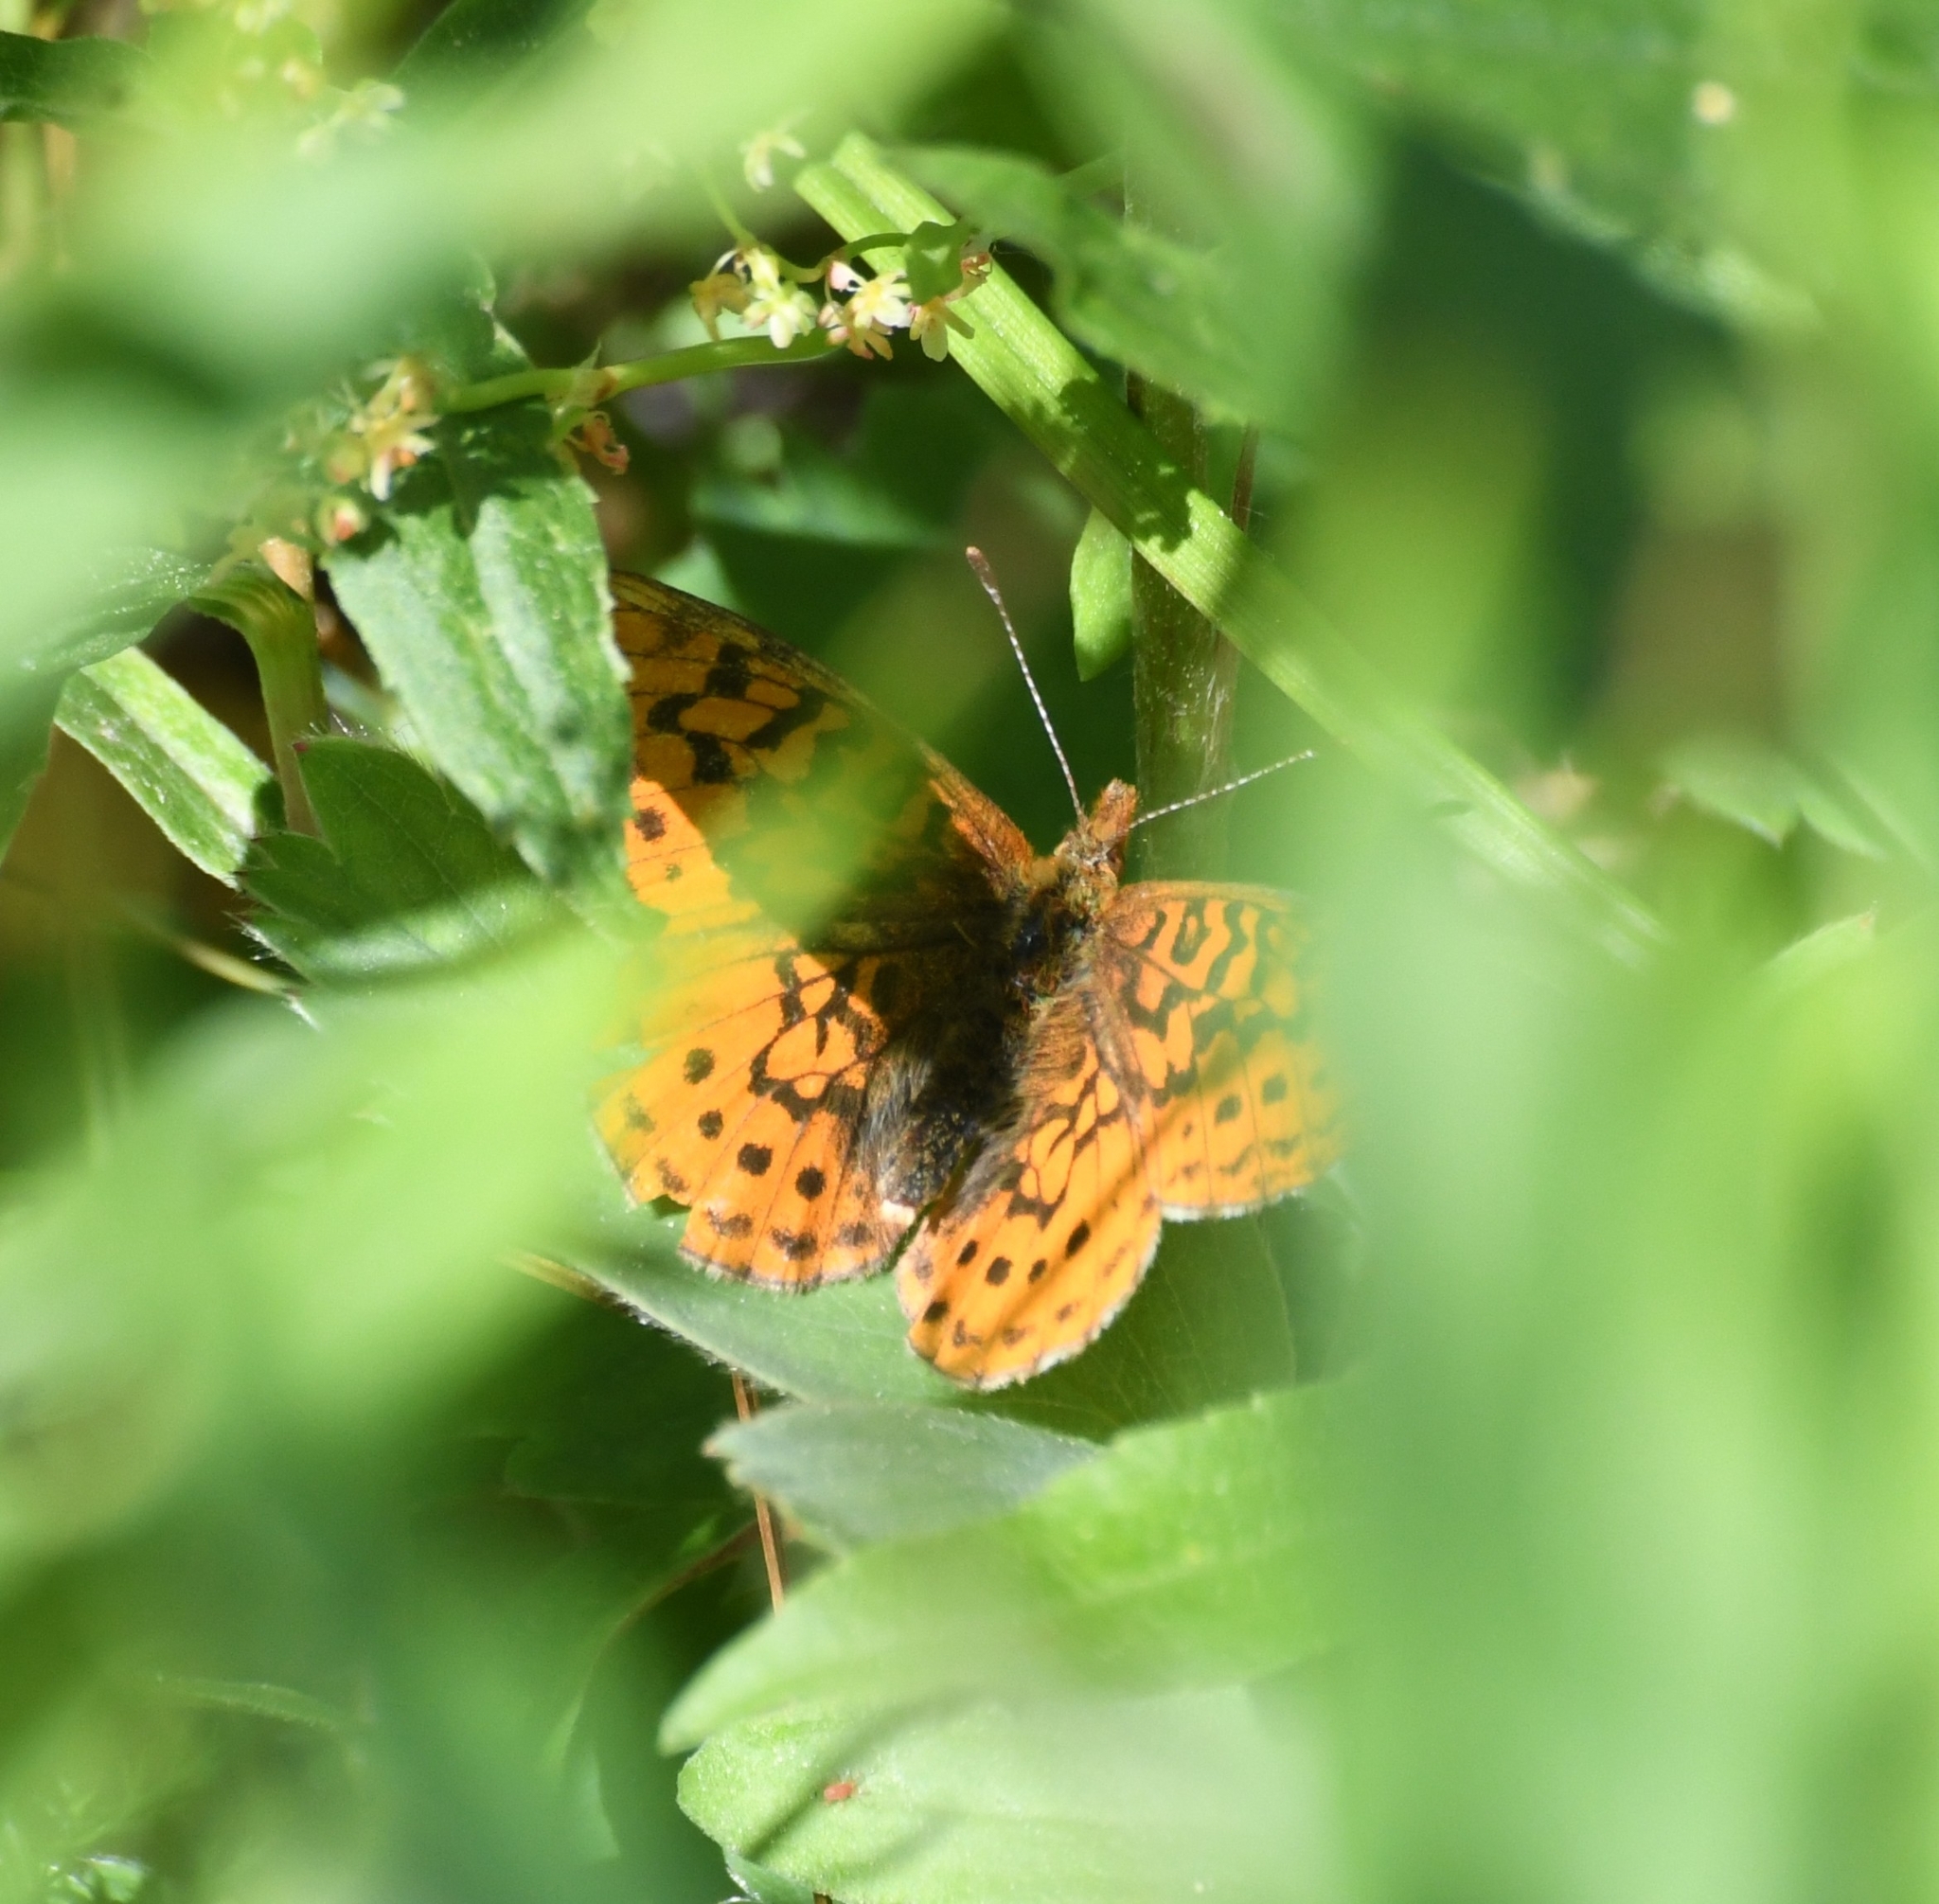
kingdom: Animalia
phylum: Arthropoda
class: Insecta
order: Lepidoptera
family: Nymphalidae
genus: Boloria
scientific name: Boloria epithore
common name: Pacific fritillary
